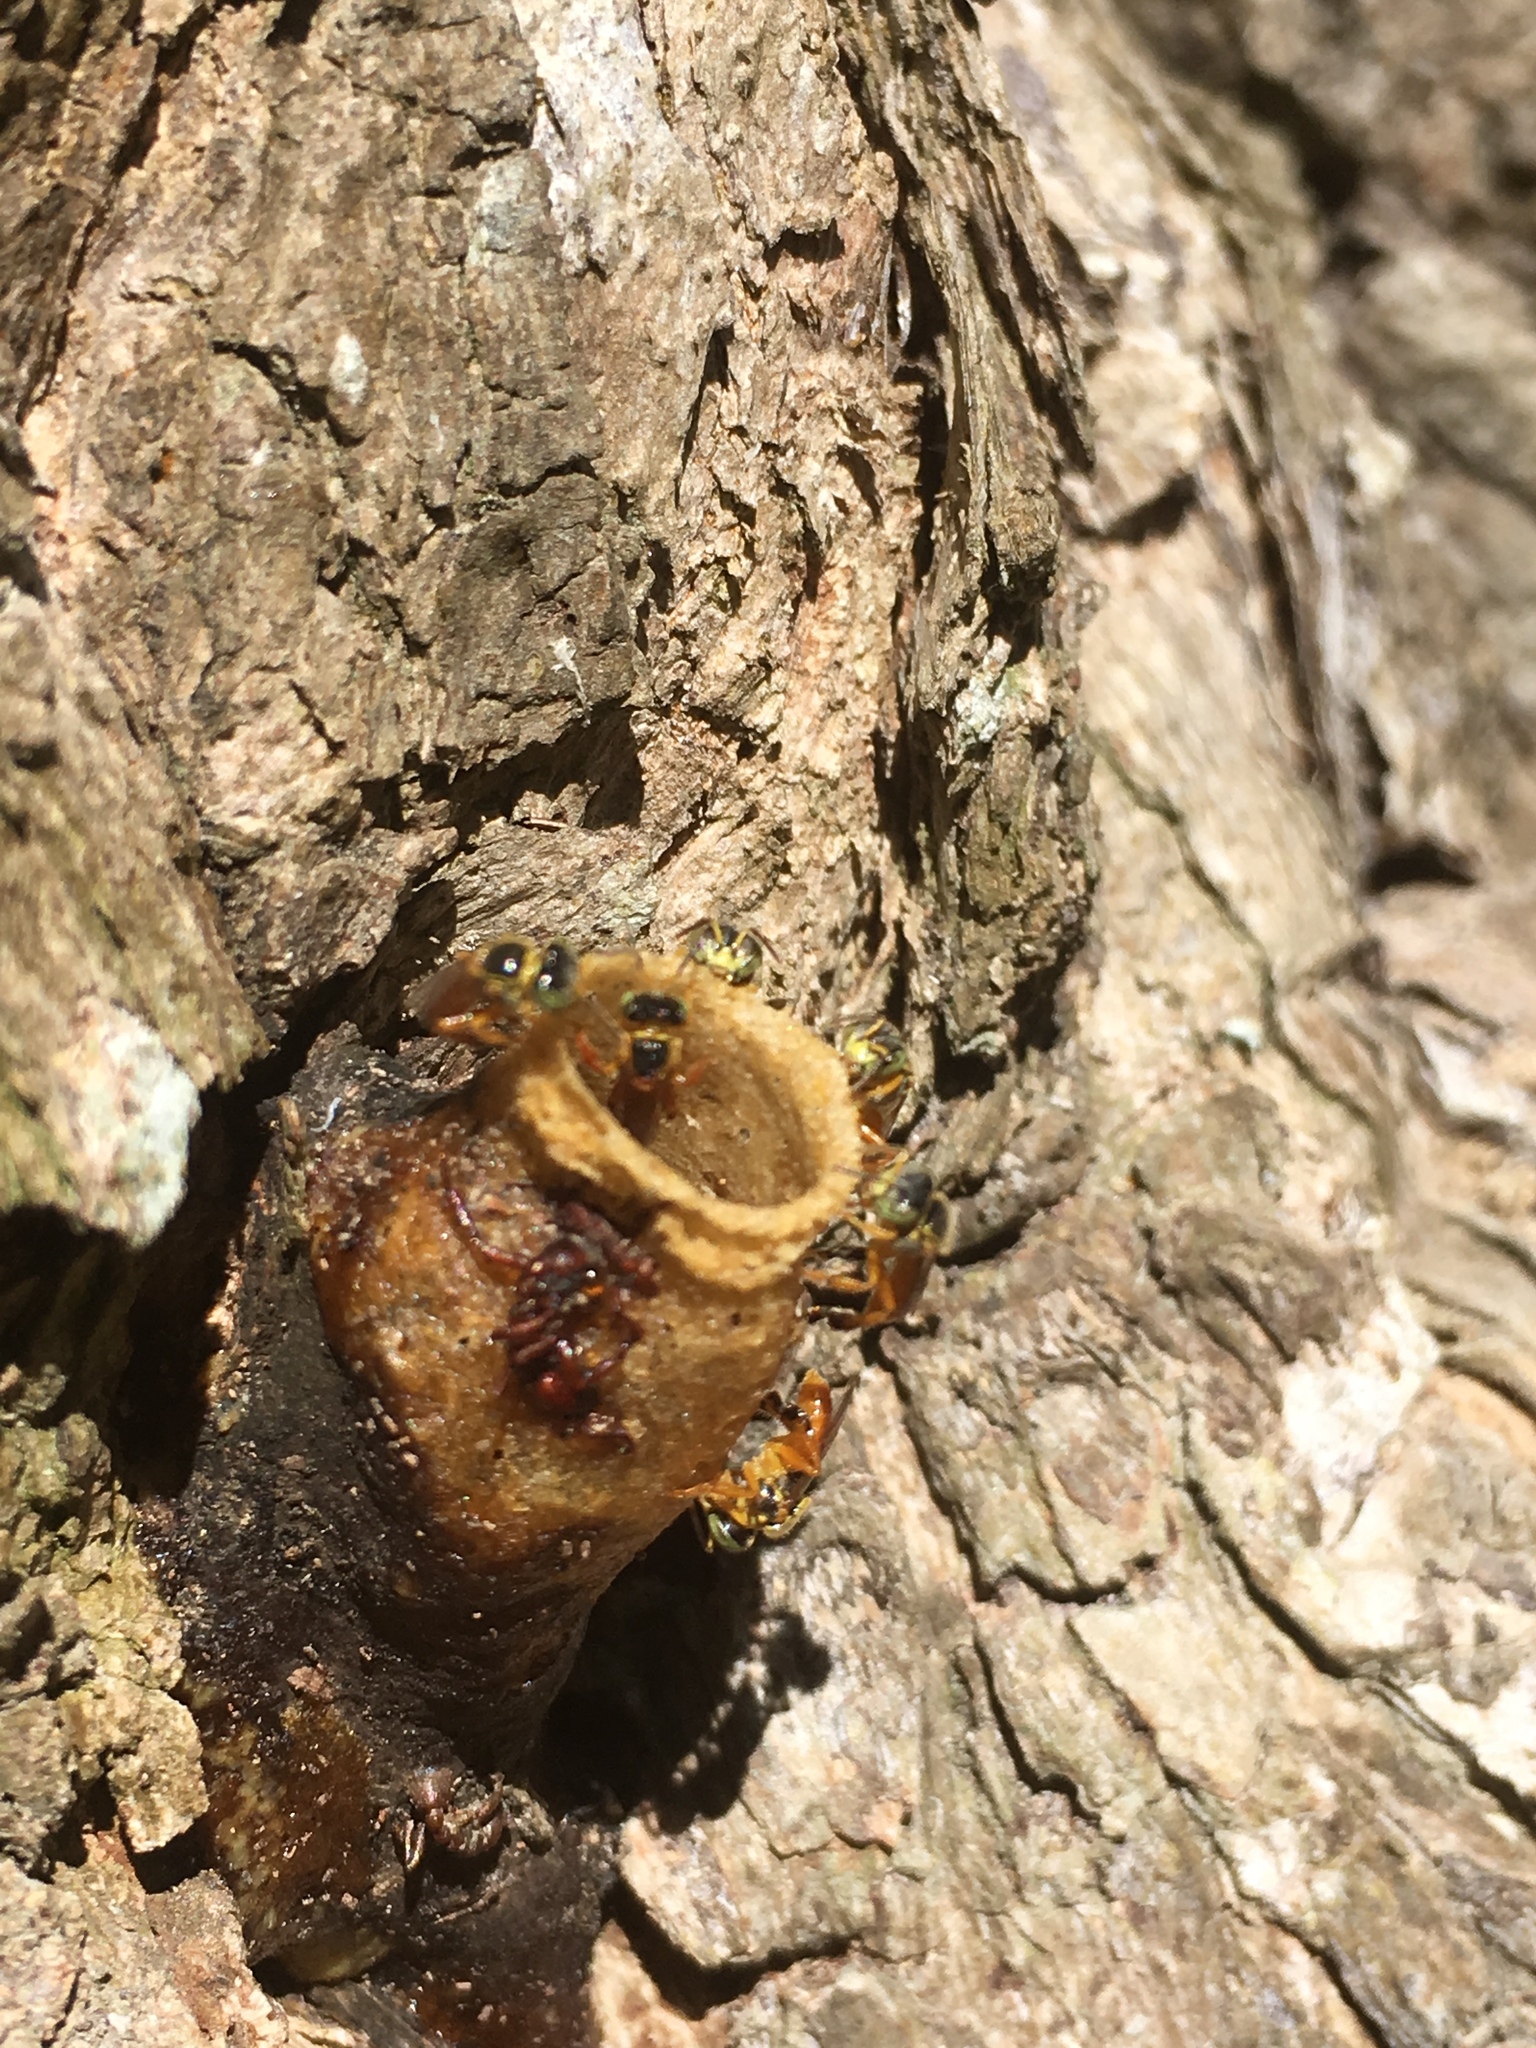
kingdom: Animalia
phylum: Arthropoda
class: Insecta
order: Hymenoptera
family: Apidae
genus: Tetragonisca
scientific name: Tetragonisca angustula
